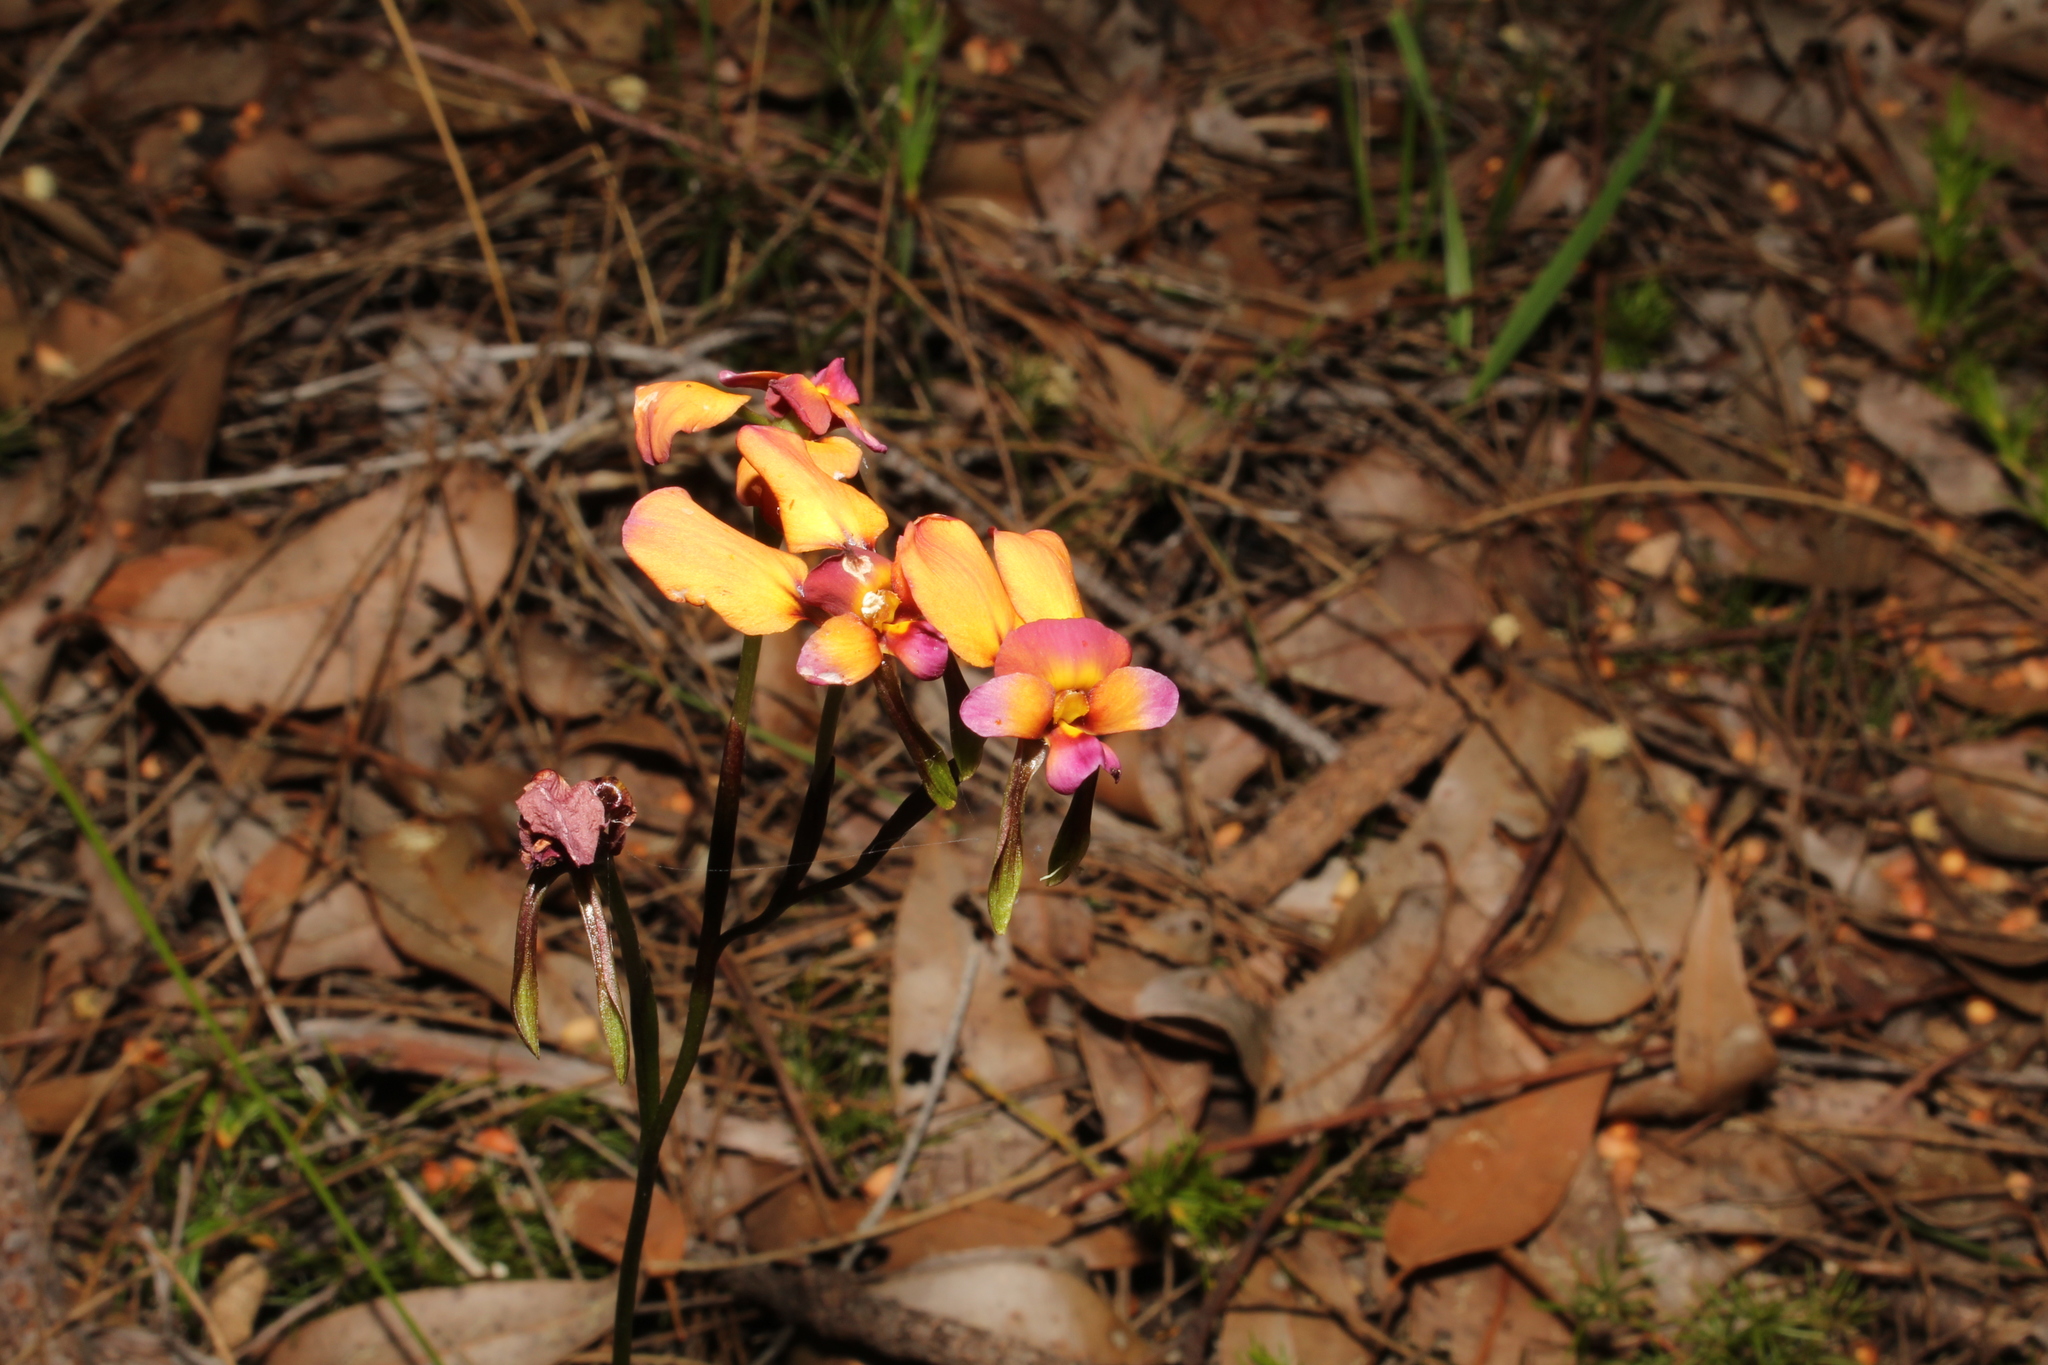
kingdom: Plantae
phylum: Tracheophyta
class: Liliopsida
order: Asparagales
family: Orchidaceae
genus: Diuris
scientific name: Diuris longifolia
